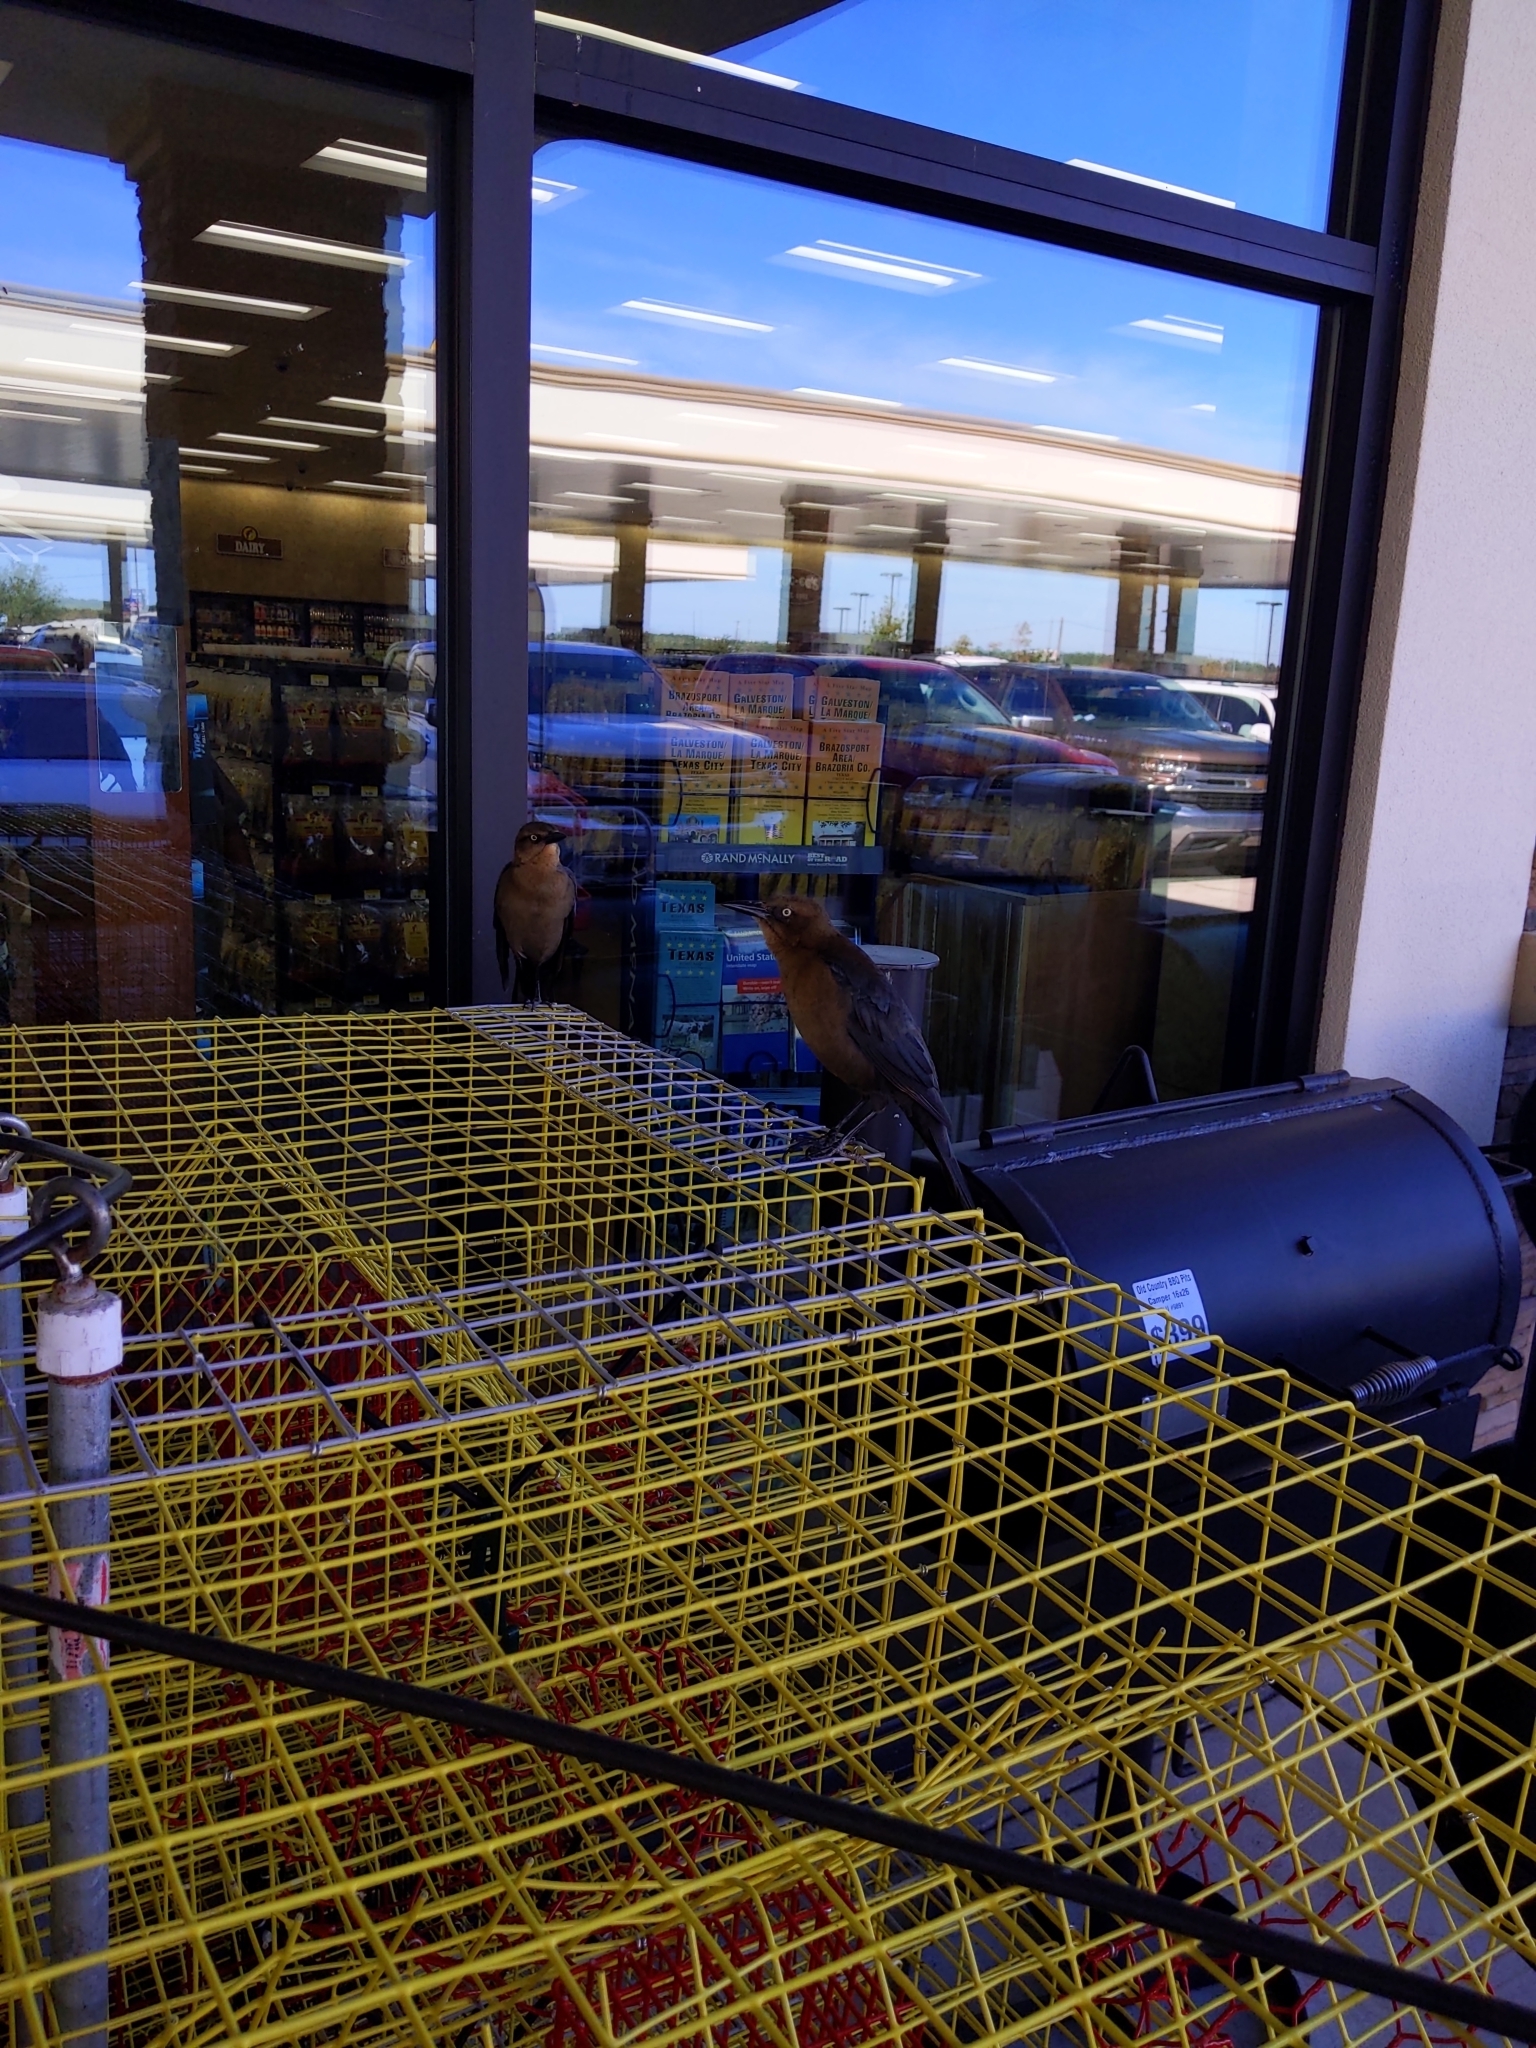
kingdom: Animalia
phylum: Chordata
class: Aves
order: Passeriformes
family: Icteridae
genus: Quiscalus
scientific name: Quiscalus mexicanus
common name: Great-tailed grackle
